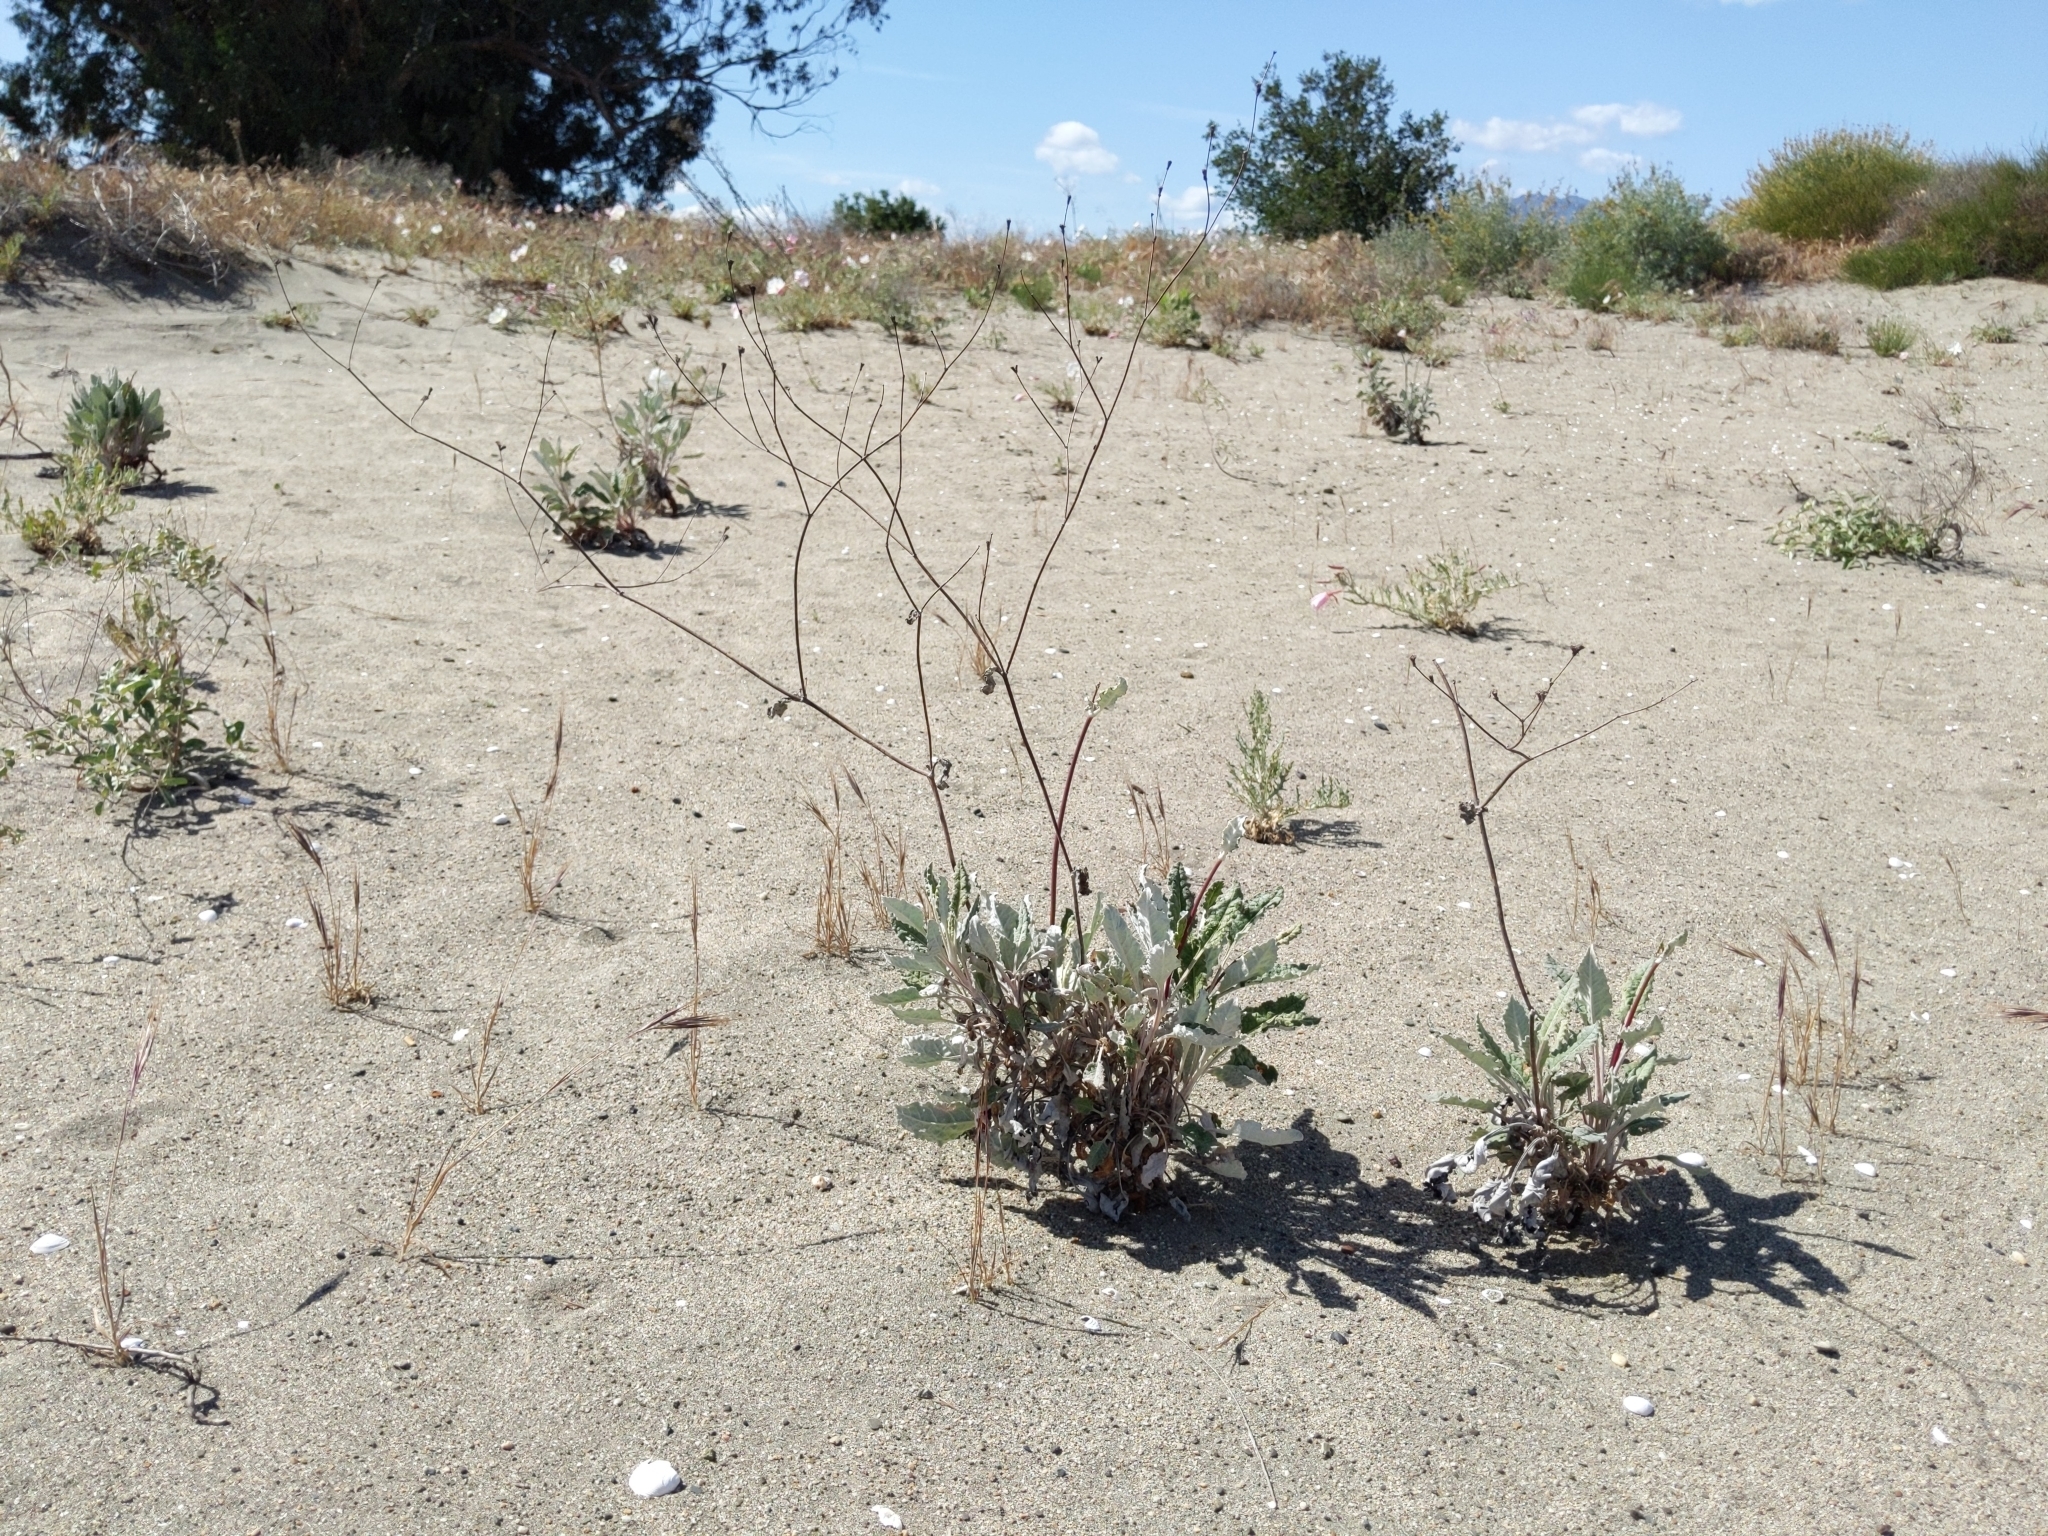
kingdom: Plantae
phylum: Tracheophyta
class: Magnoliopsida
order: Caryophyllales
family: Polygonaceae
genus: Eriogonum
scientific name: Eriogonum nudum
